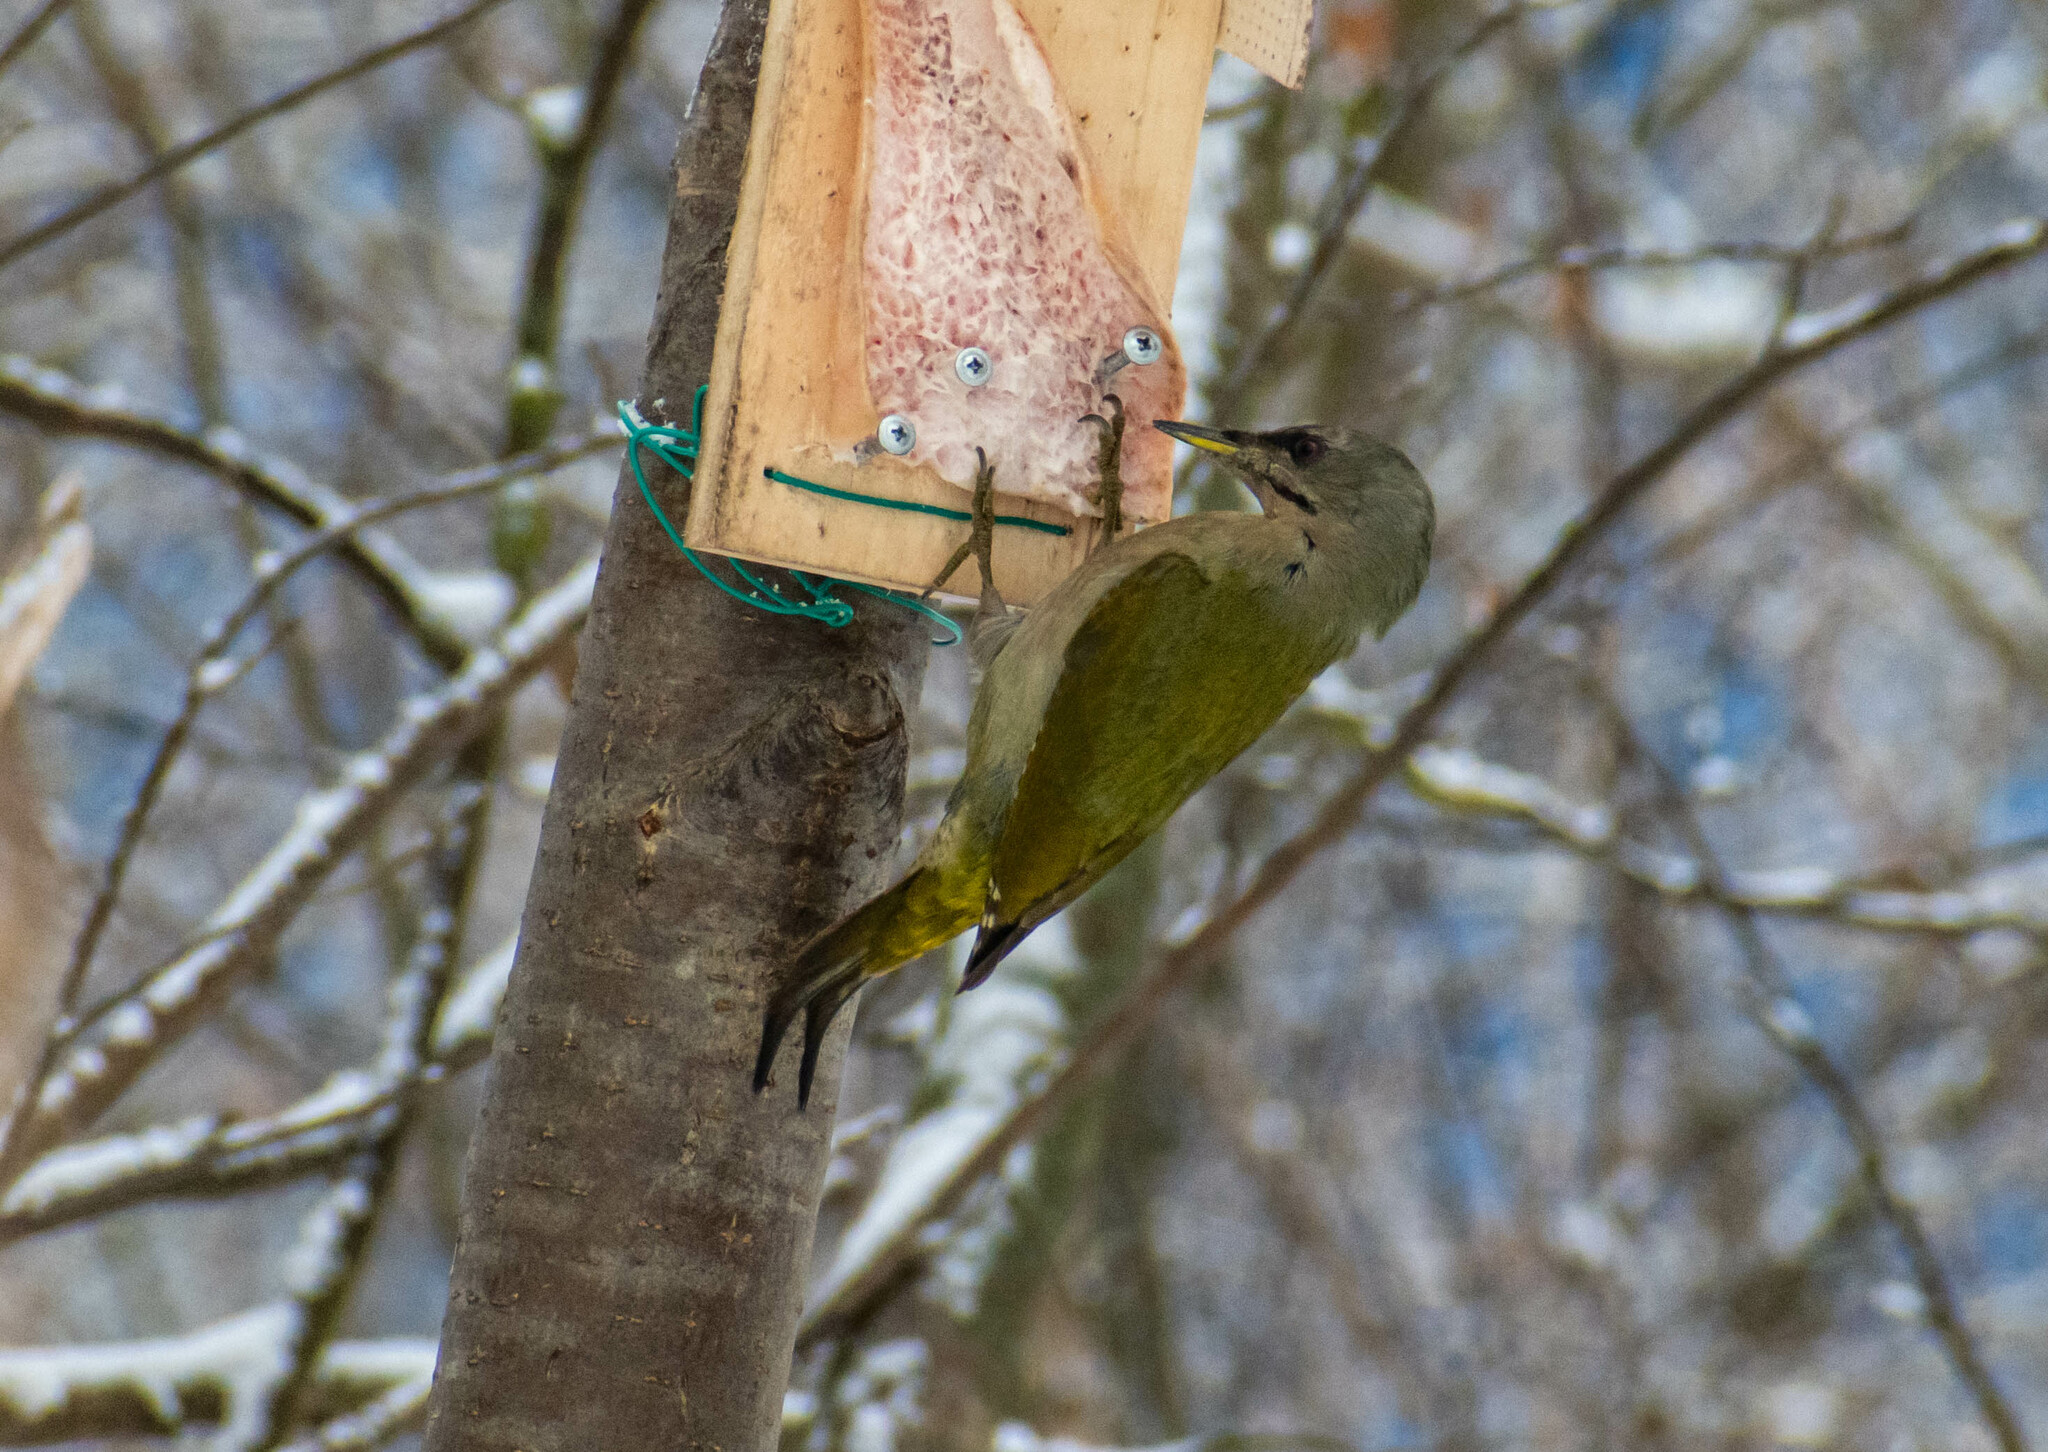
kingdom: Animalia
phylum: Chordata
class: Aves
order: Piciformes
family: Picidae
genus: Picus
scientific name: Picus canus
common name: Grey-headed woodpecker
